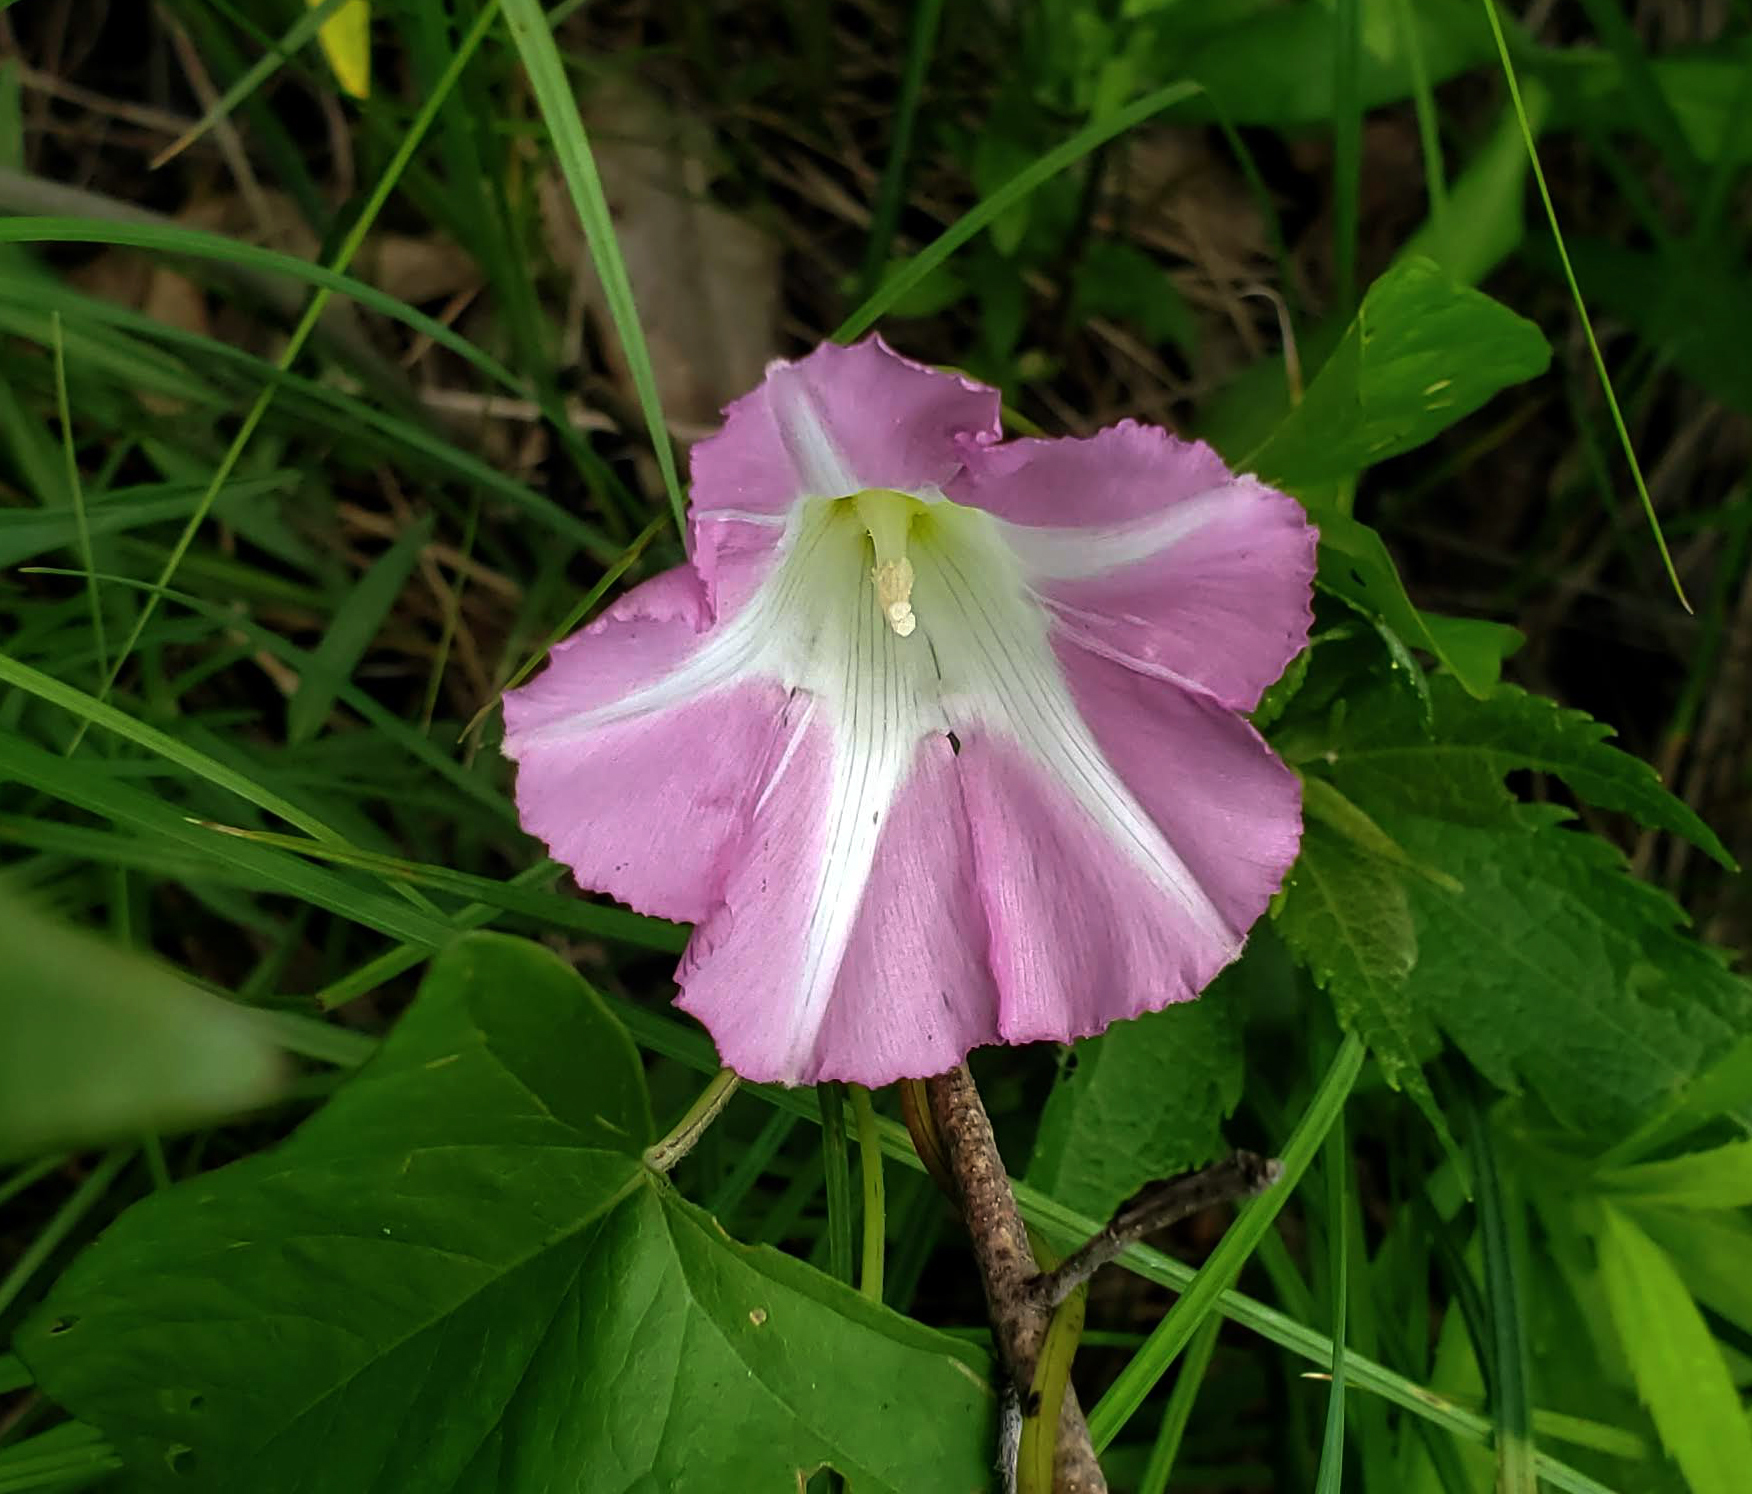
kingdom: Plantae
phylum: Tracheophyta
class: Magnoliopsida
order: Solanales
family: Convolvulaceae
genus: Calystegia
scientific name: Calystegia sepium
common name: Hedge bindweed
